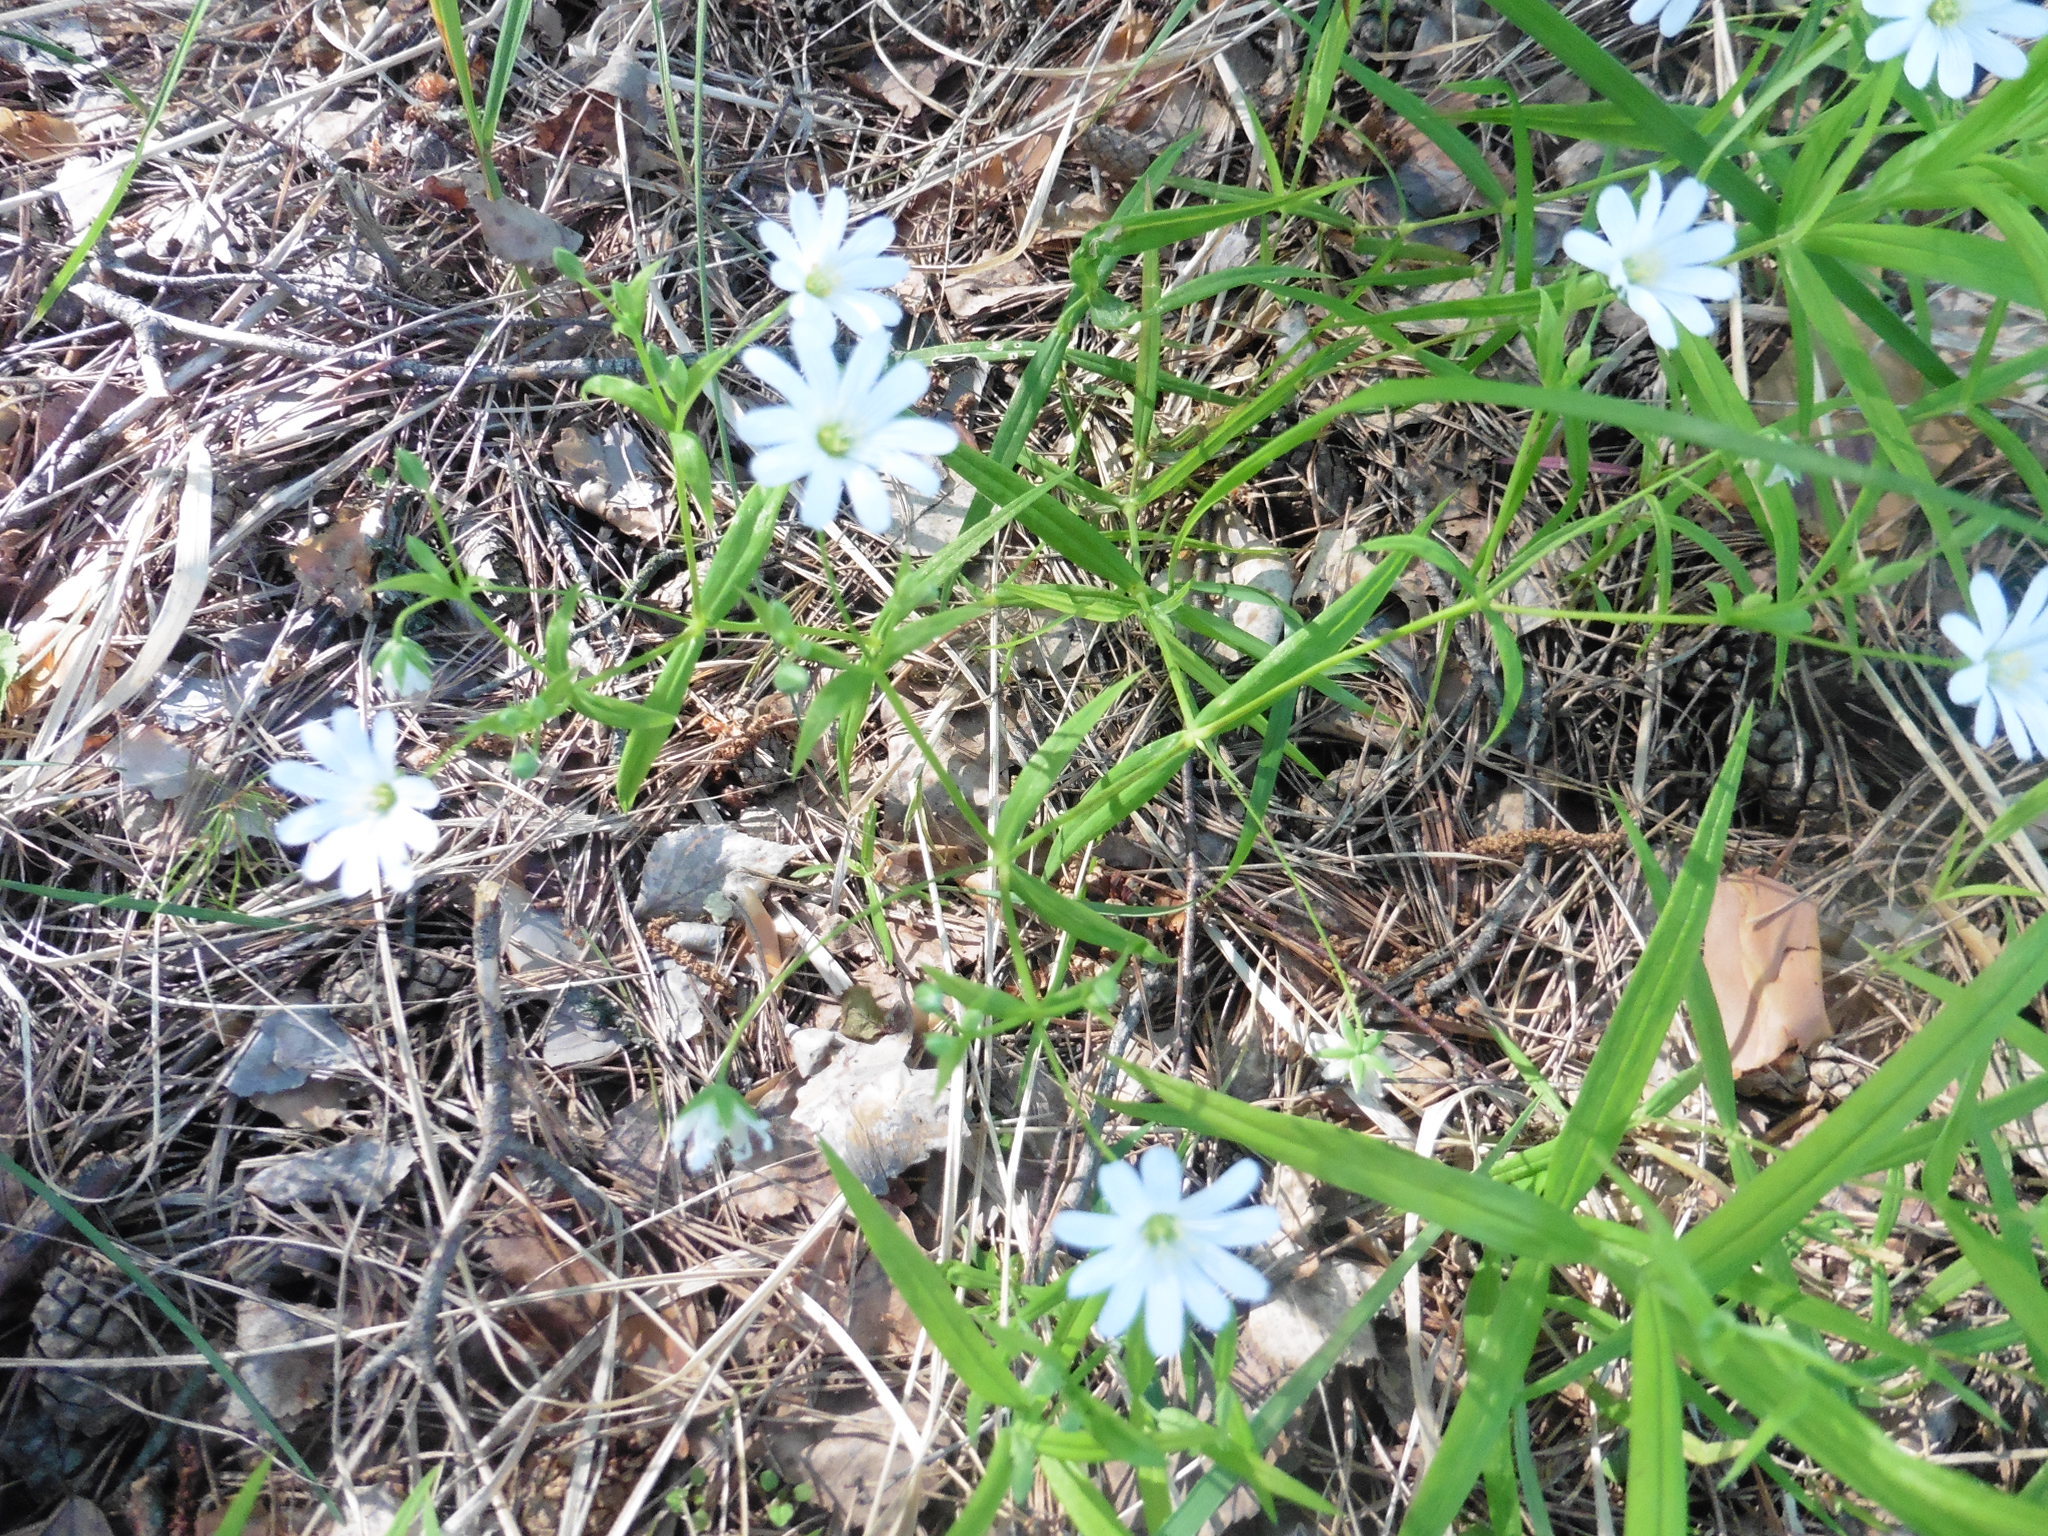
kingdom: Plantae
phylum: Tracheophyta
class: Magnoliopsida
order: Caryophyllales
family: Caryophyllaceae
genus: Rabelera
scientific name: Rabelera holostea
